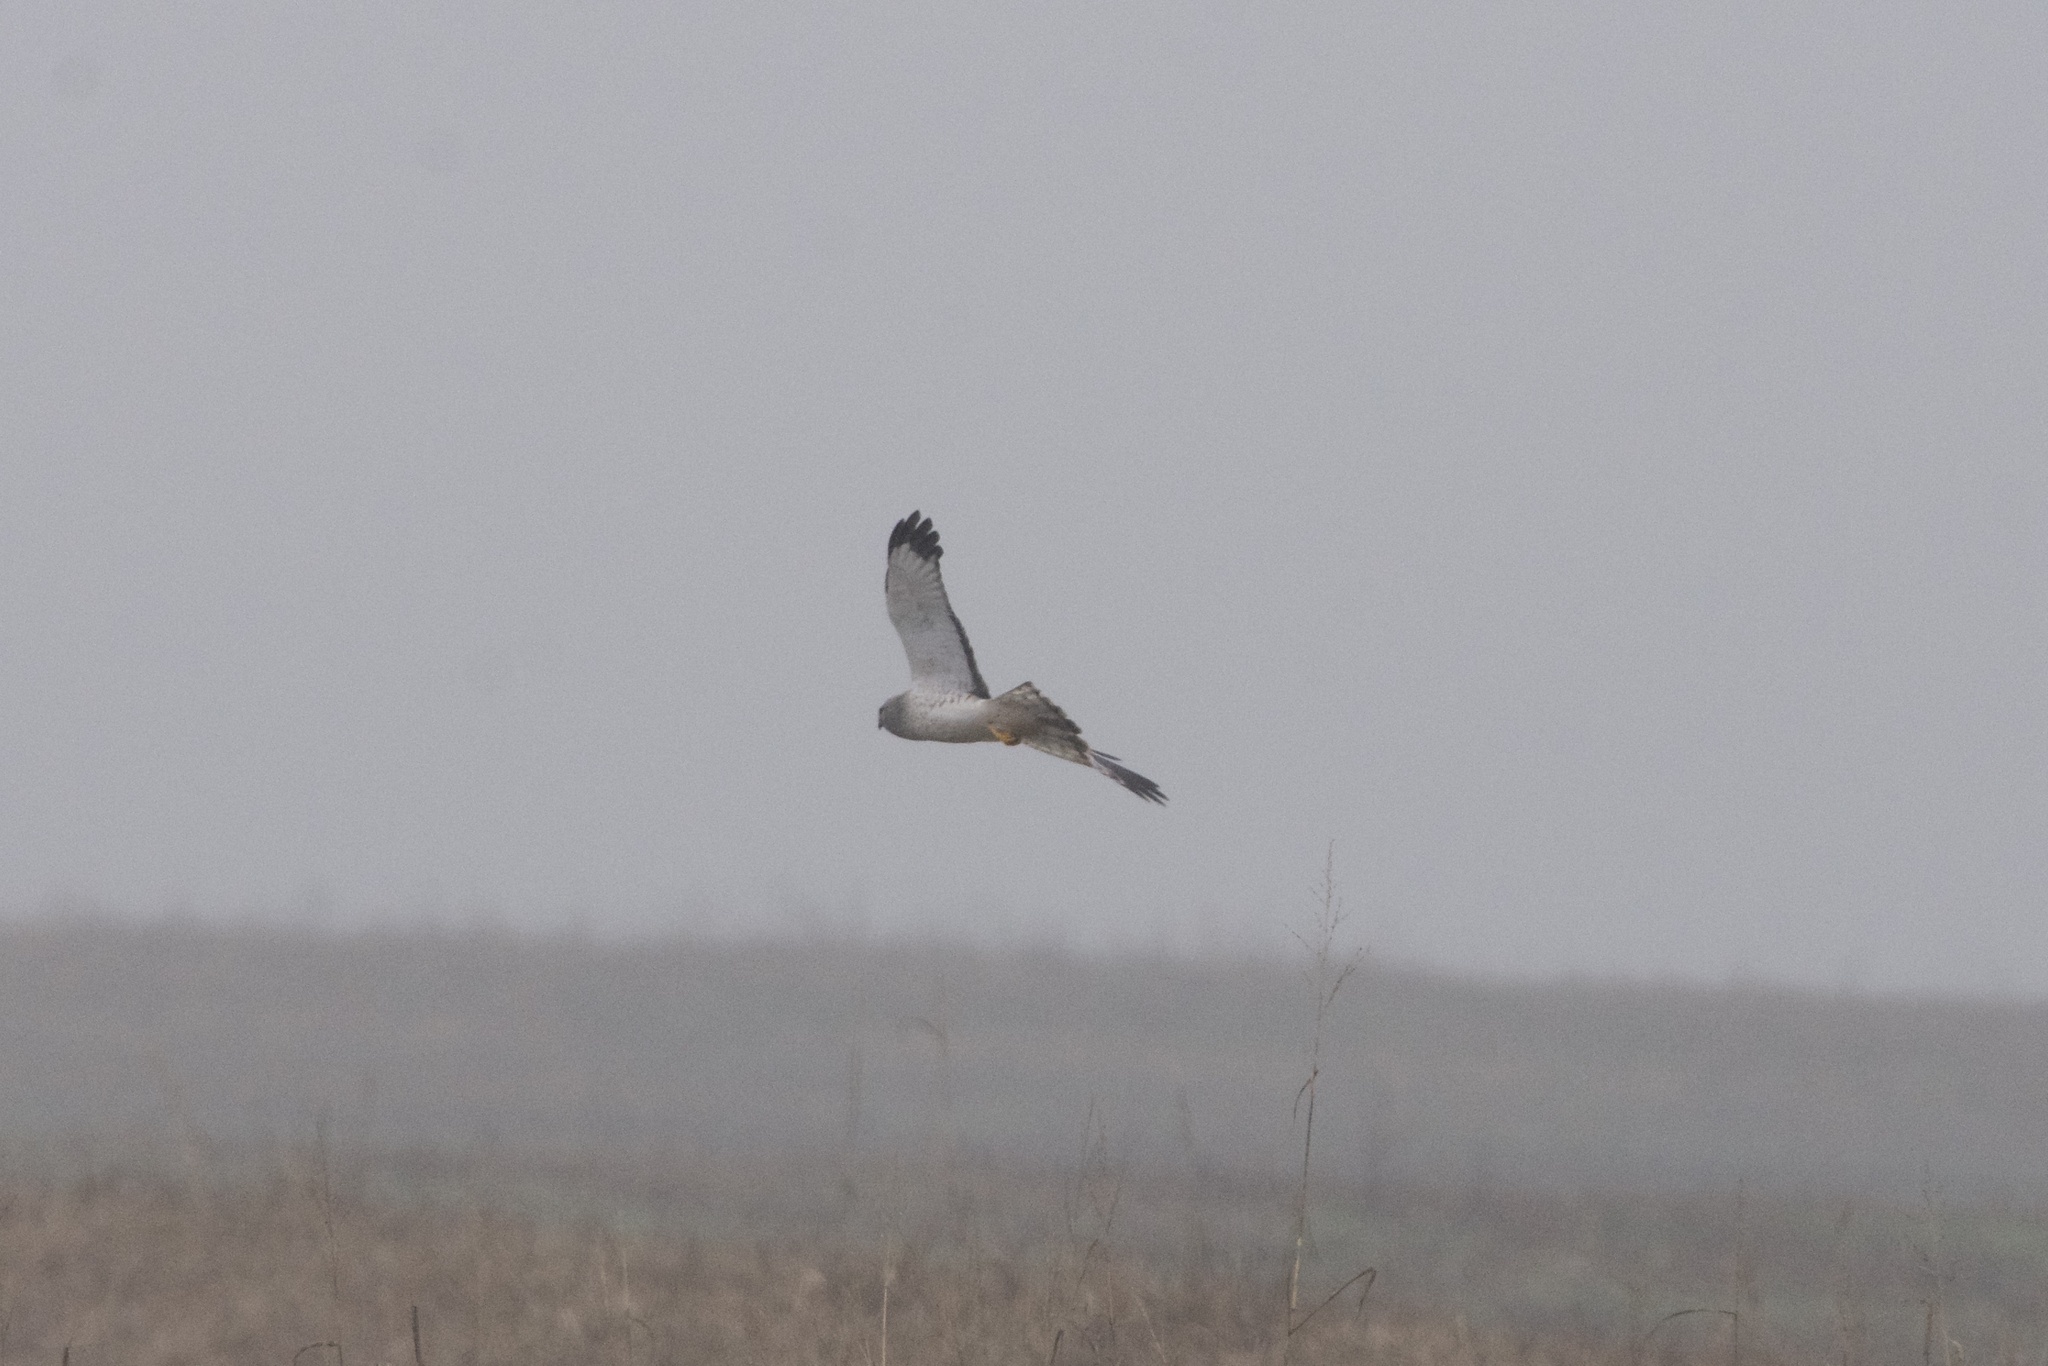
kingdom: Animalia
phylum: Chordata
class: Aves
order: Accipitriformes
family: Accipitridae
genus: Circus
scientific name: Circus cyaneus
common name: Hen harrier
